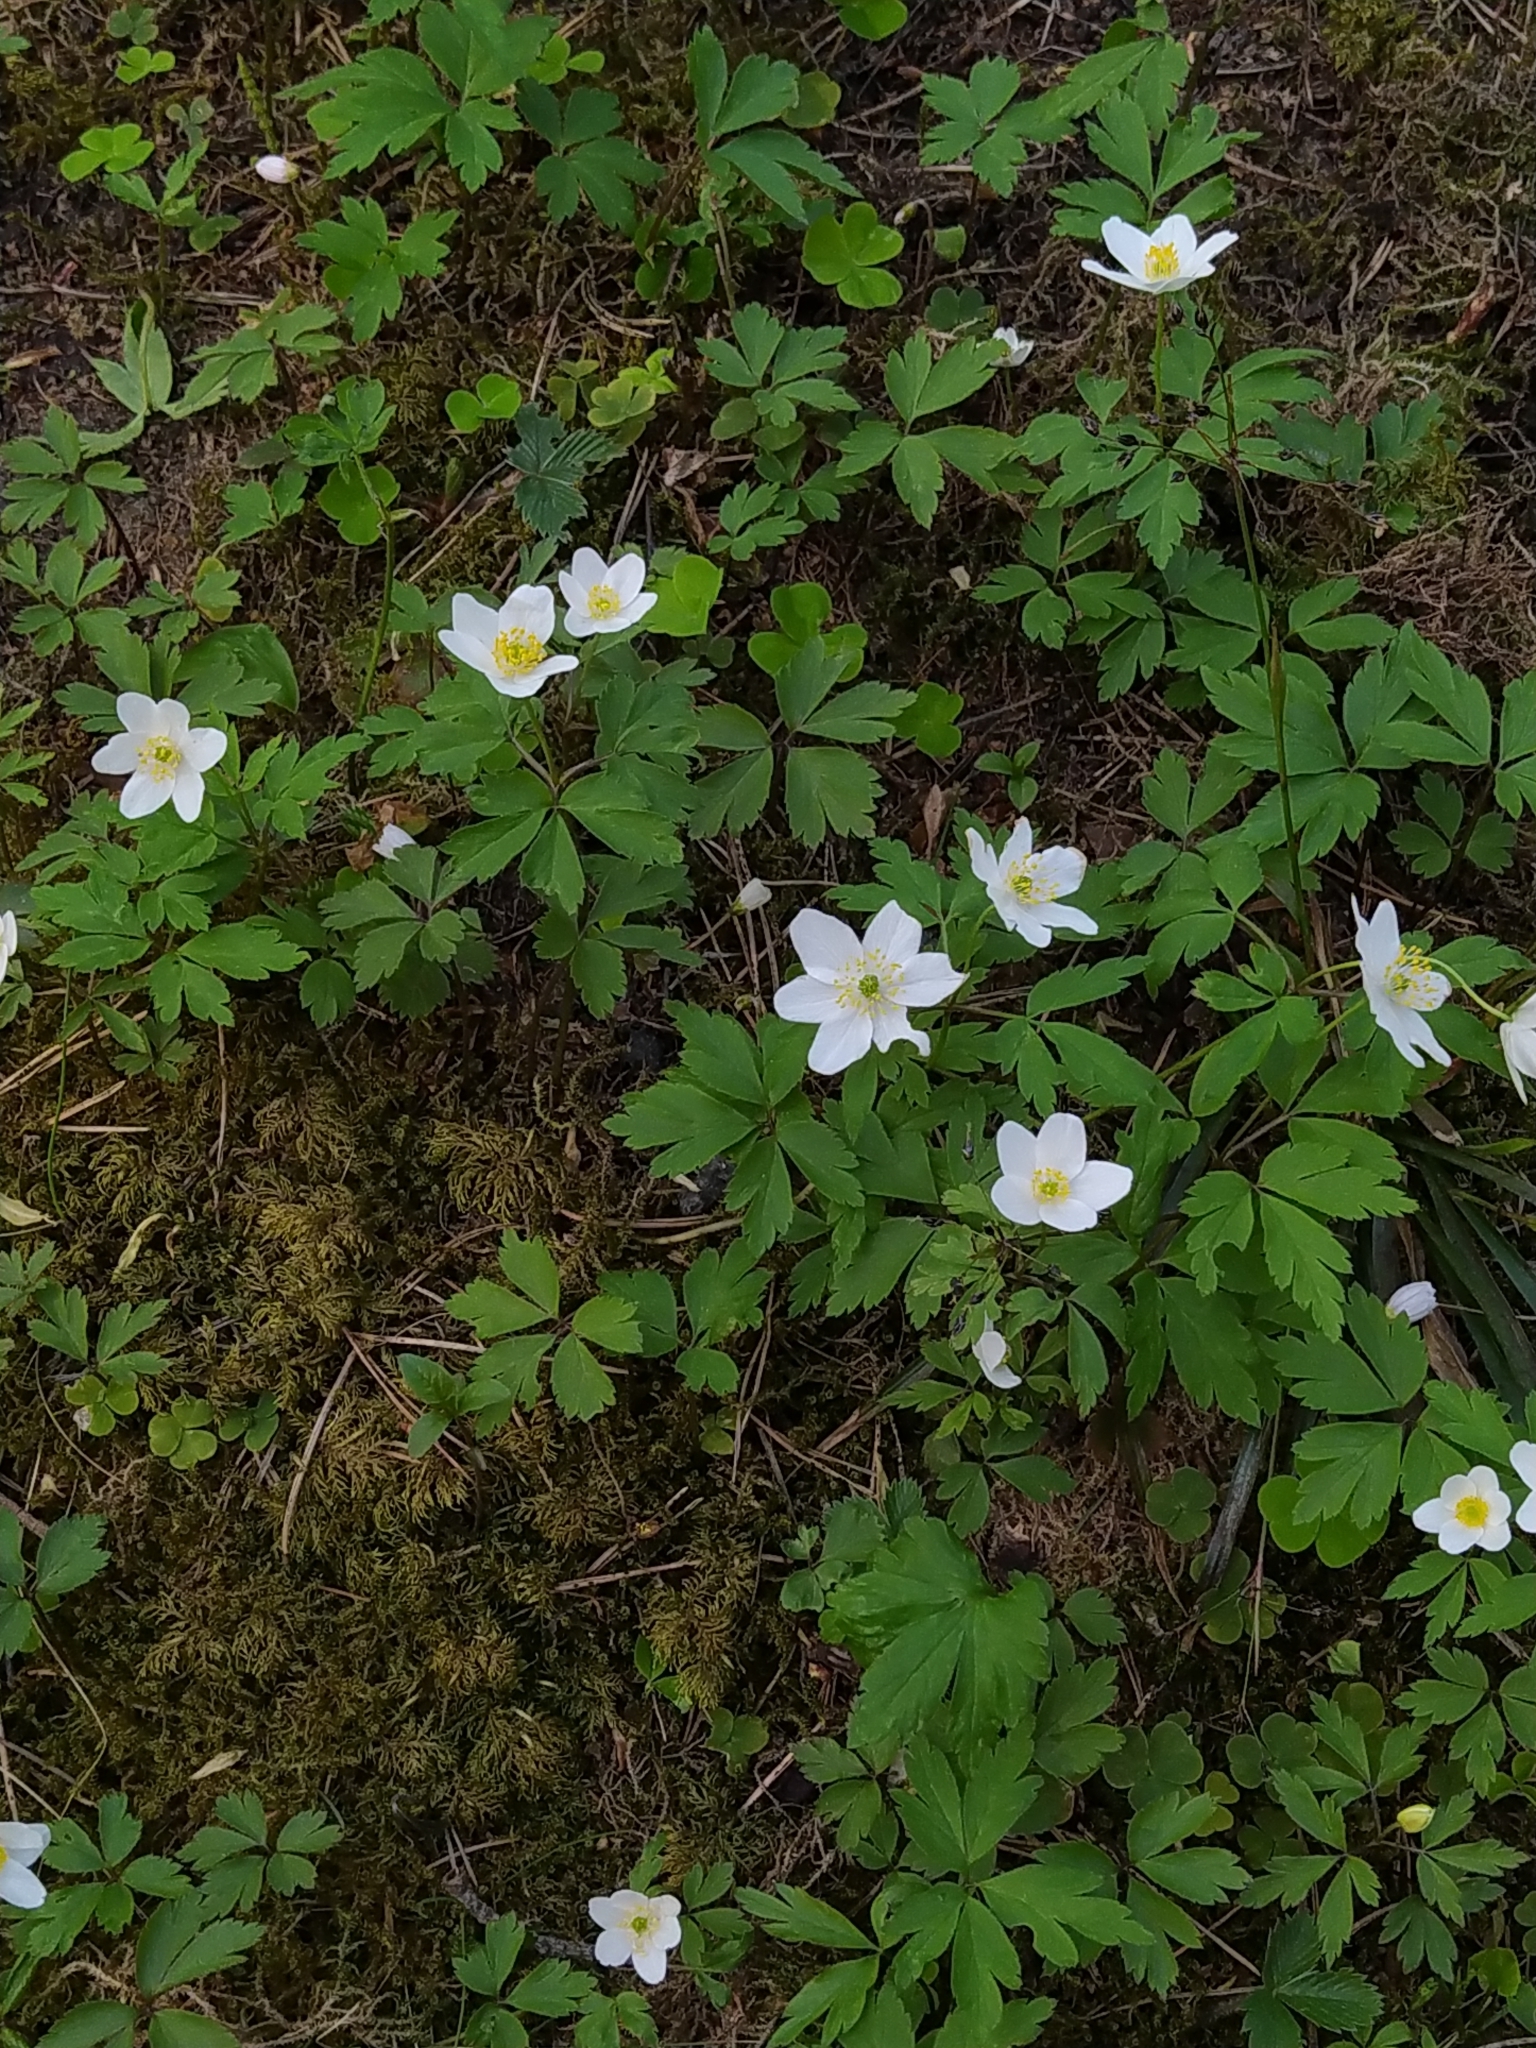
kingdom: Plantae
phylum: Tracheophyta
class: Magnoliopsida
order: Ranunculales
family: Ranunculaceae
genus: Anemone
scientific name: Anemone nemorosa
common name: Wood anemone
